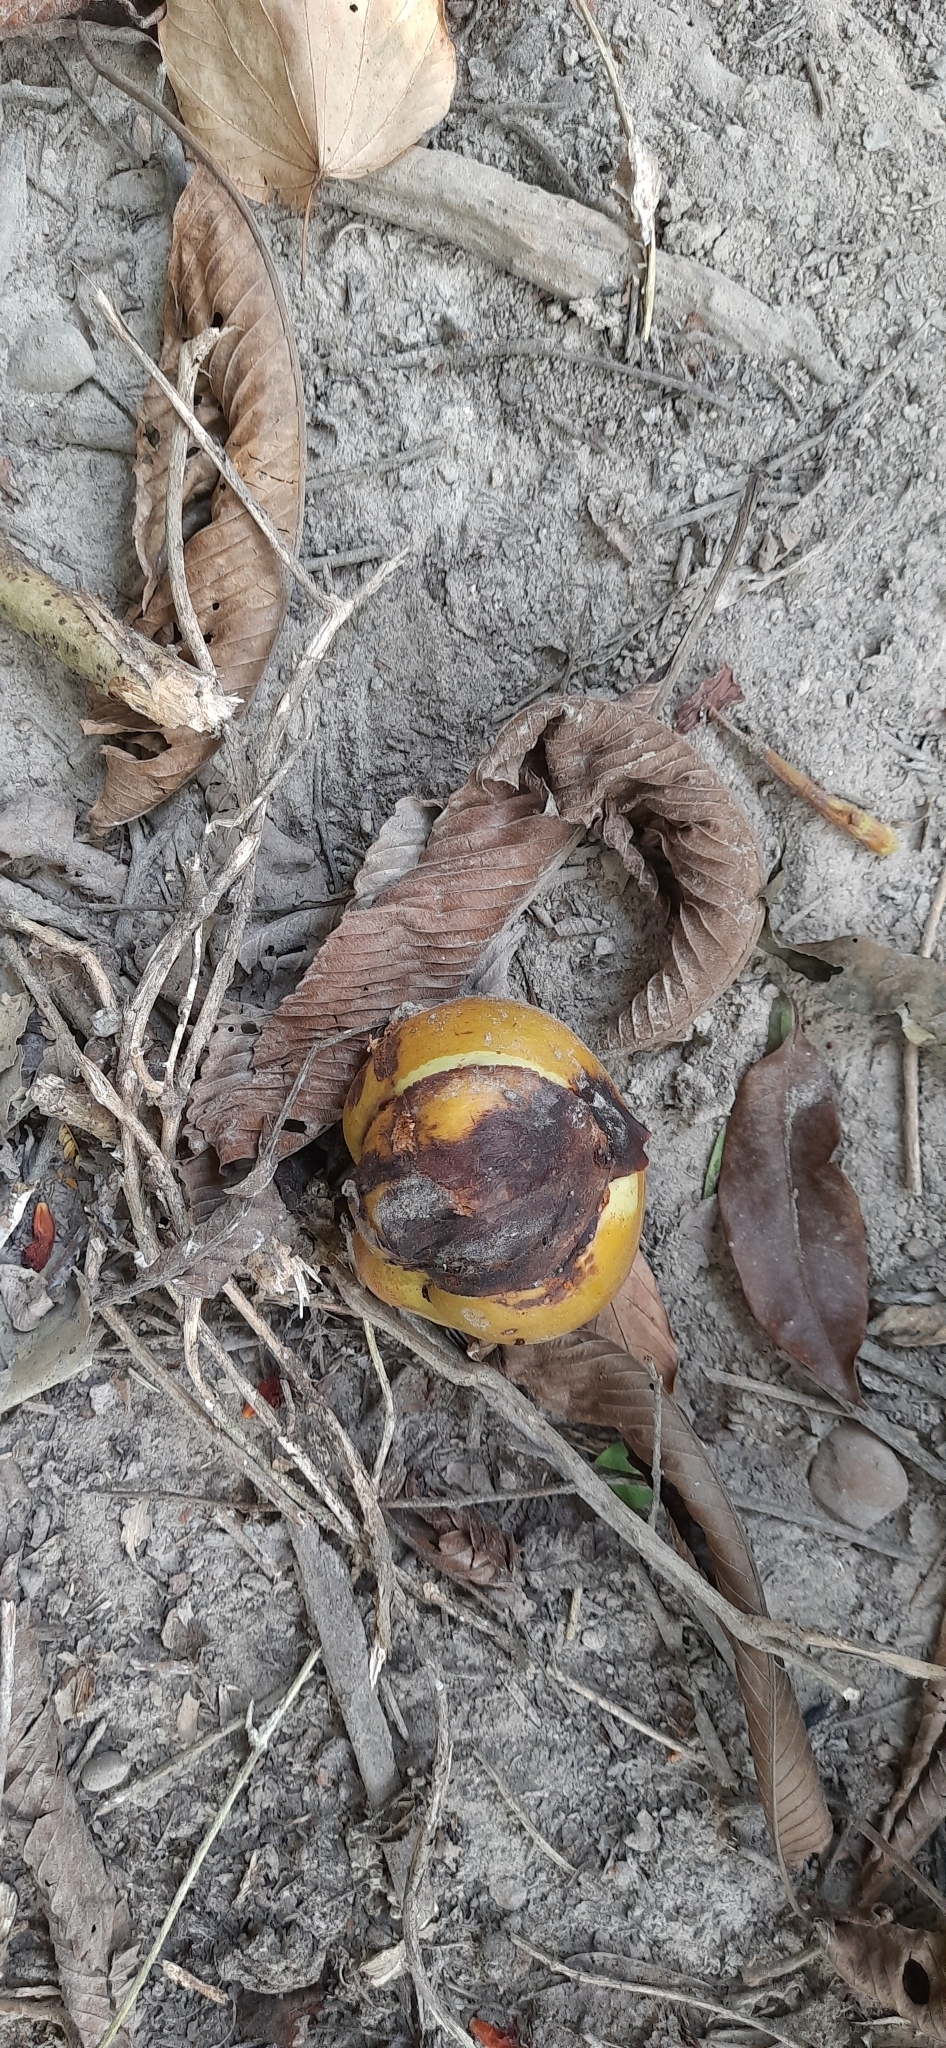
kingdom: Plantae
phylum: Tracheophyta
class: Magnoliopsida
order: Dilleniales
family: Dilleniaceae
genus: Dillenia
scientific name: Dillenia indica
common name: Elephant apple
